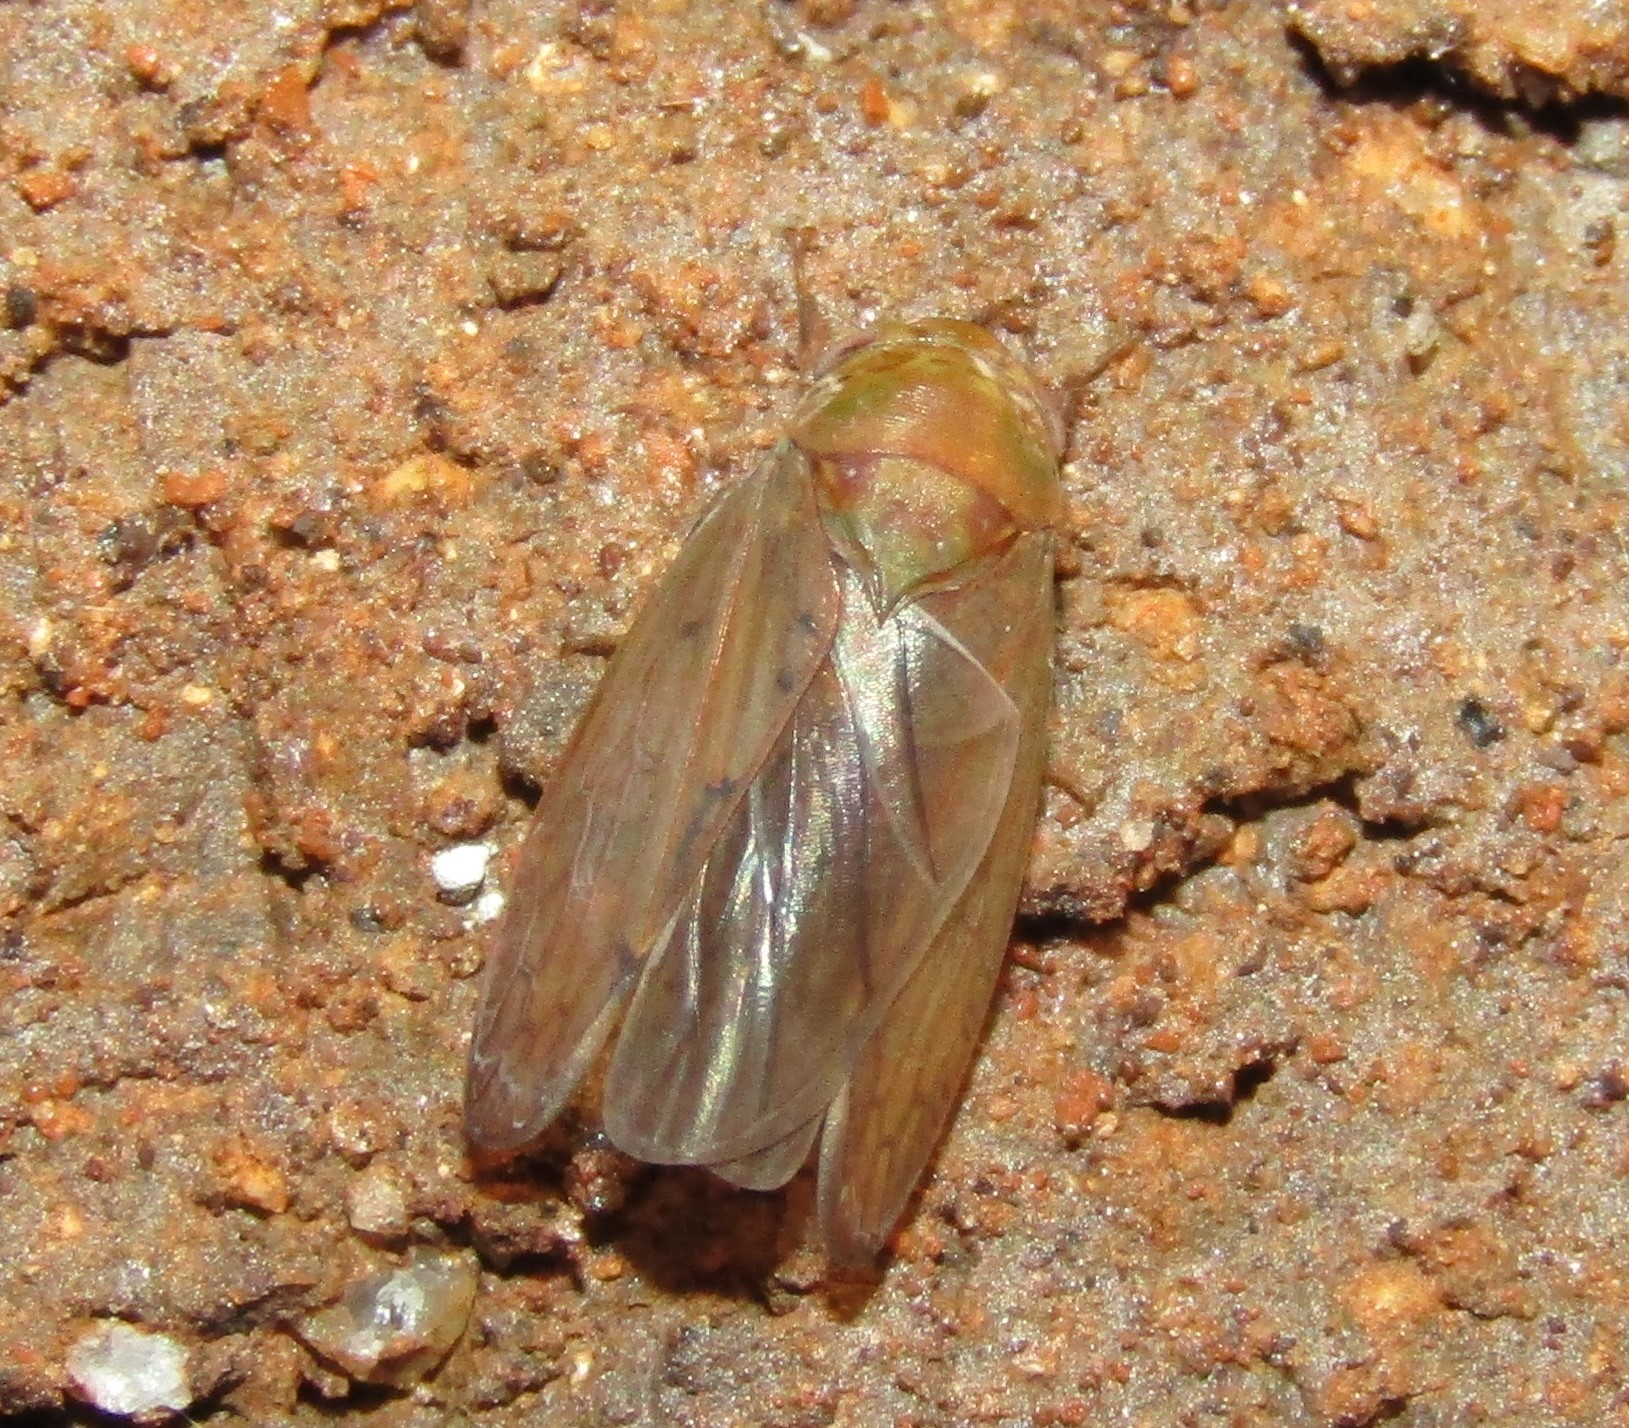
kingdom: Animalia
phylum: Arthropoda
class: Insecta
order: Hemiptera
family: Cicadellidae
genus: Polana
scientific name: Polana quadrinotata
